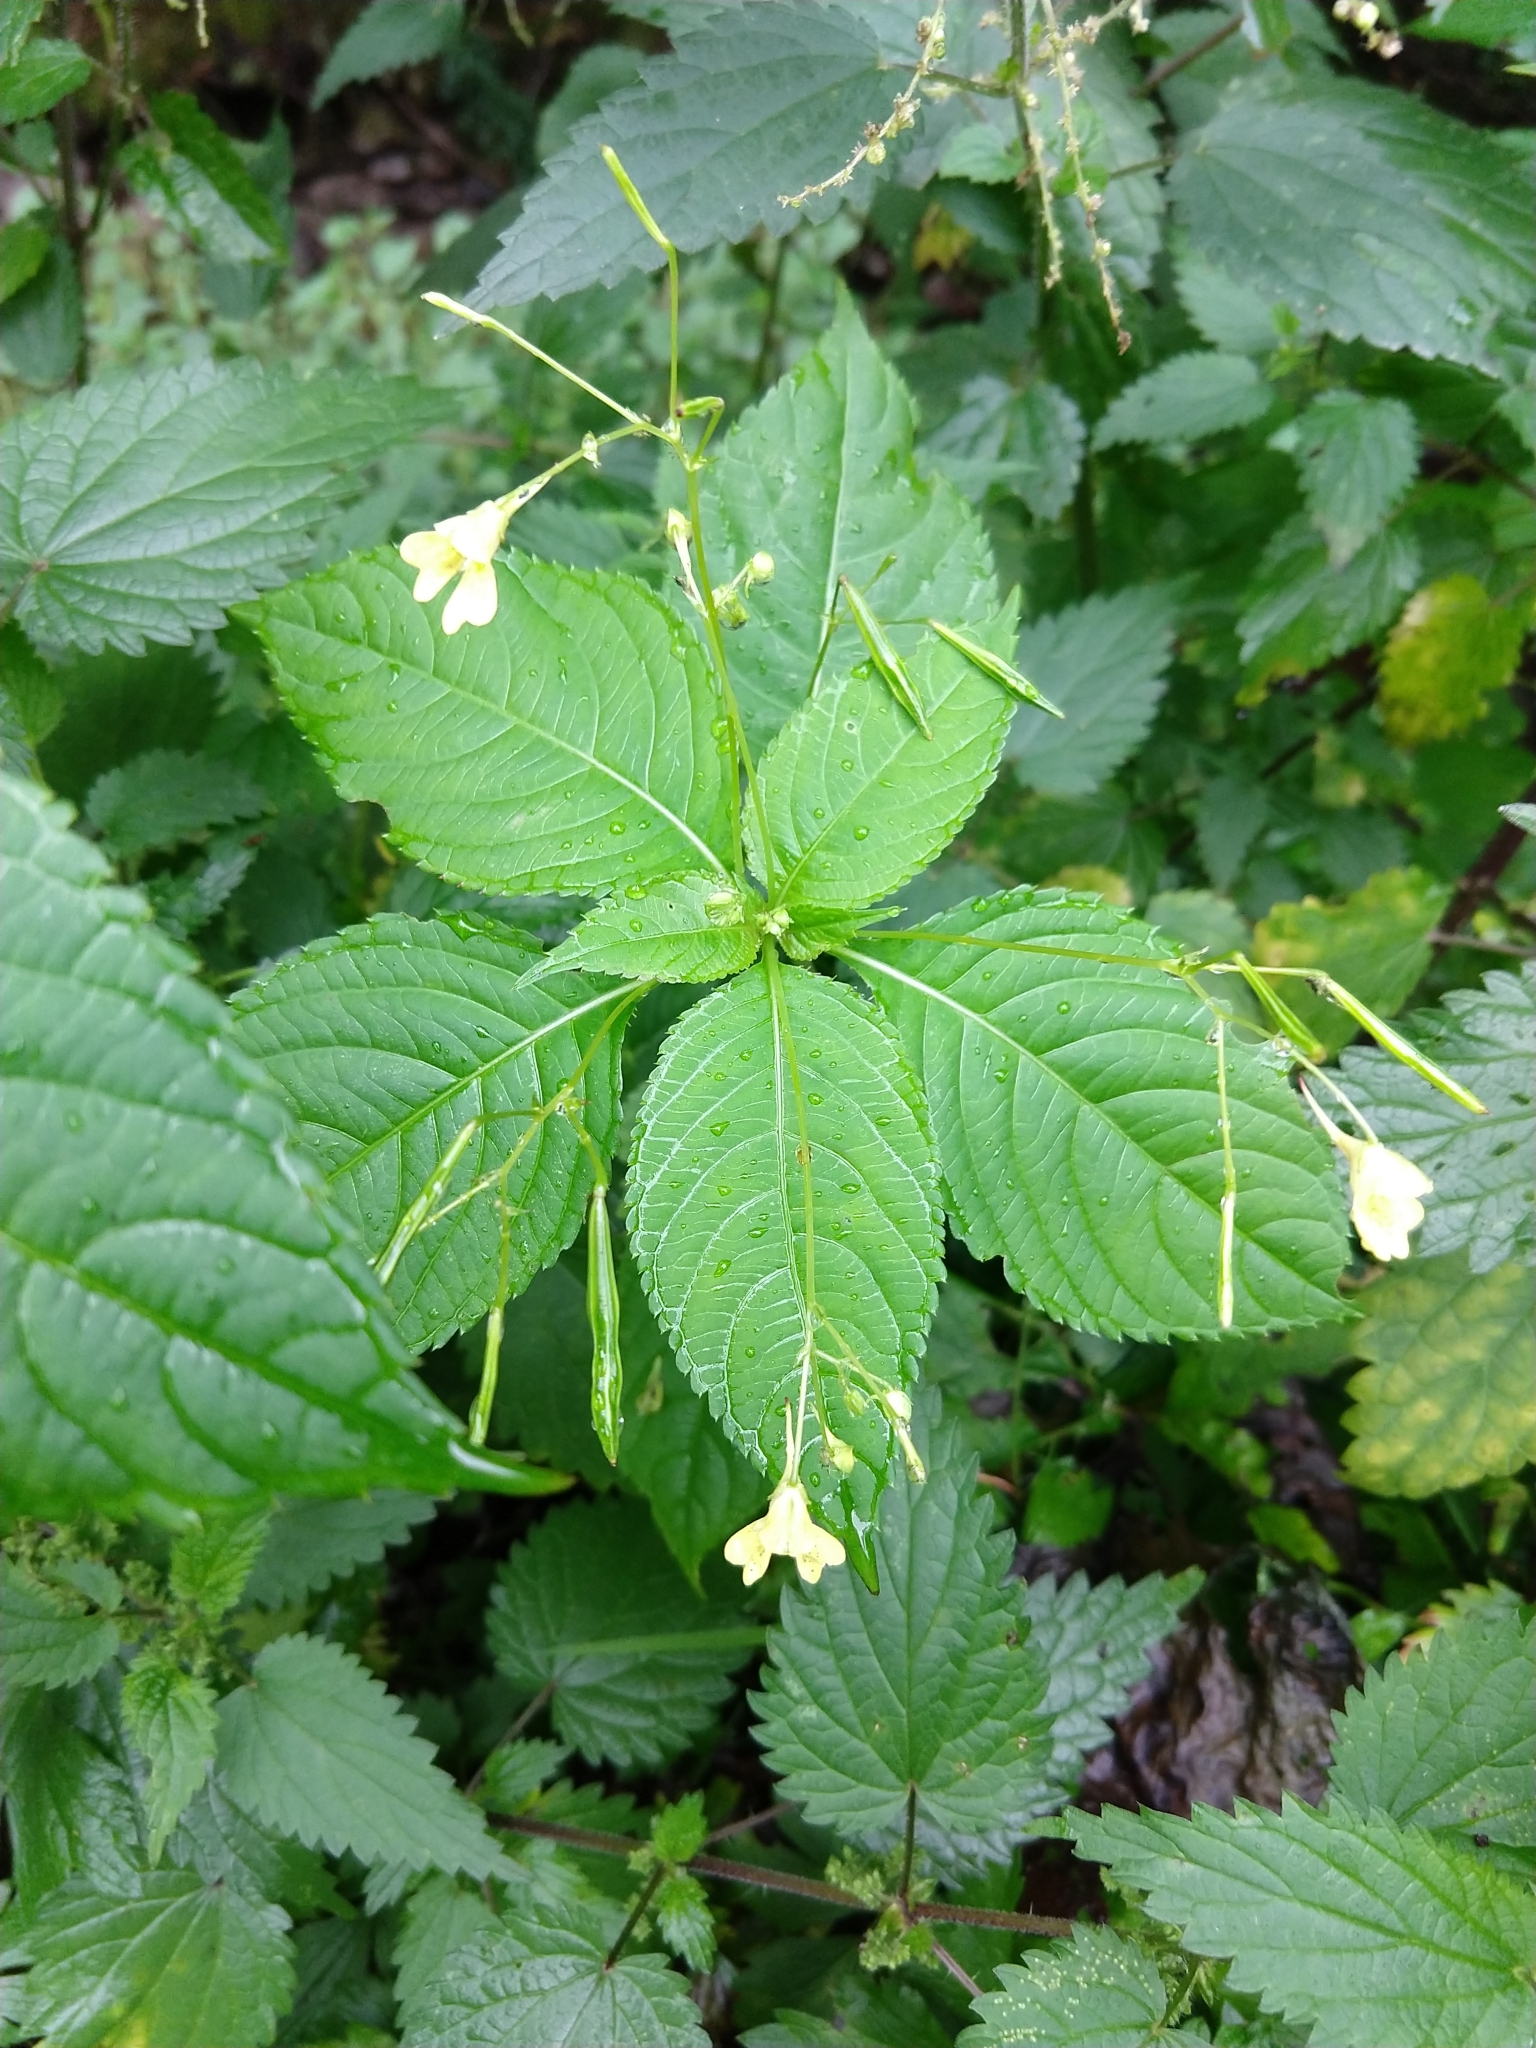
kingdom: Plantae
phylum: Tracheophyta
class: Magnoliopsida
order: Ericales
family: Balsaminaceae
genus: Impatiens
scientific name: Impatiens parviflora
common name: Small balsam
